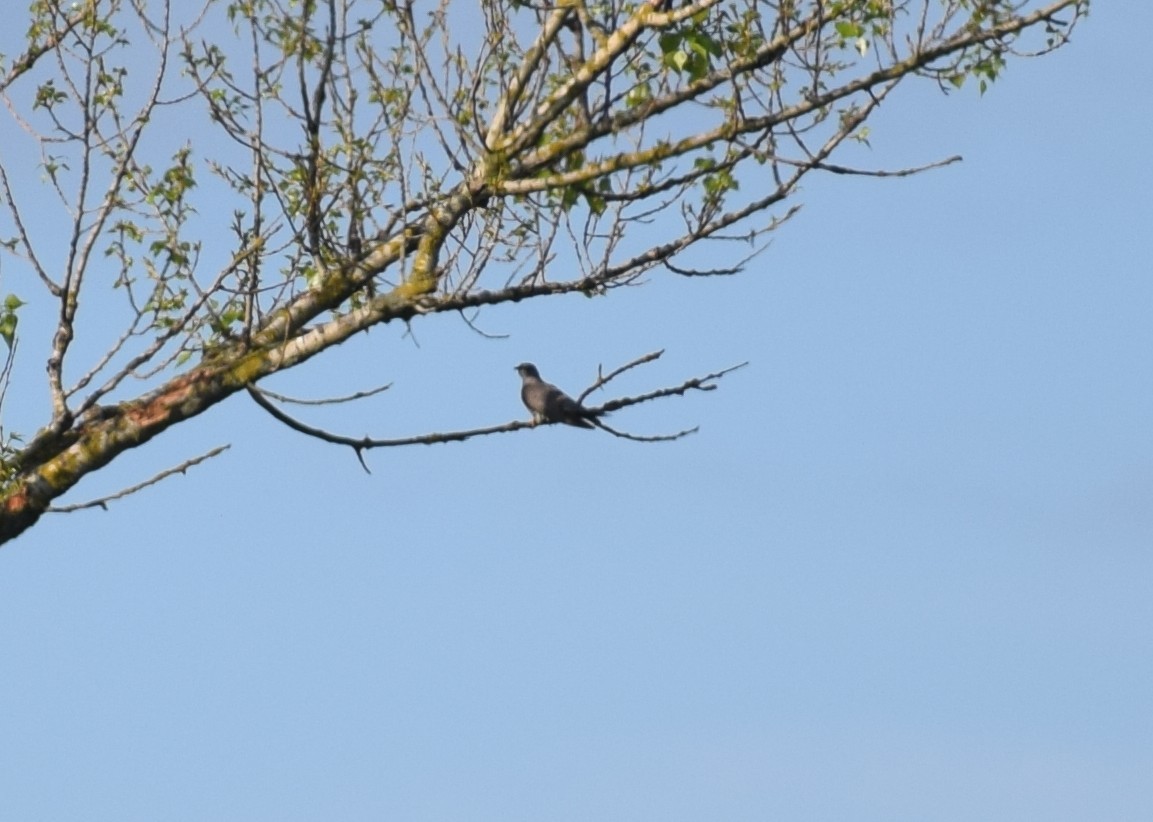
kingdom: Animalia
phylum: Chordata
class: Aves
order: Cuculiformes
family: Cuculidae
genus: Cuculus
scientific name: Cuculus canorus
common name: Common cuckoo
